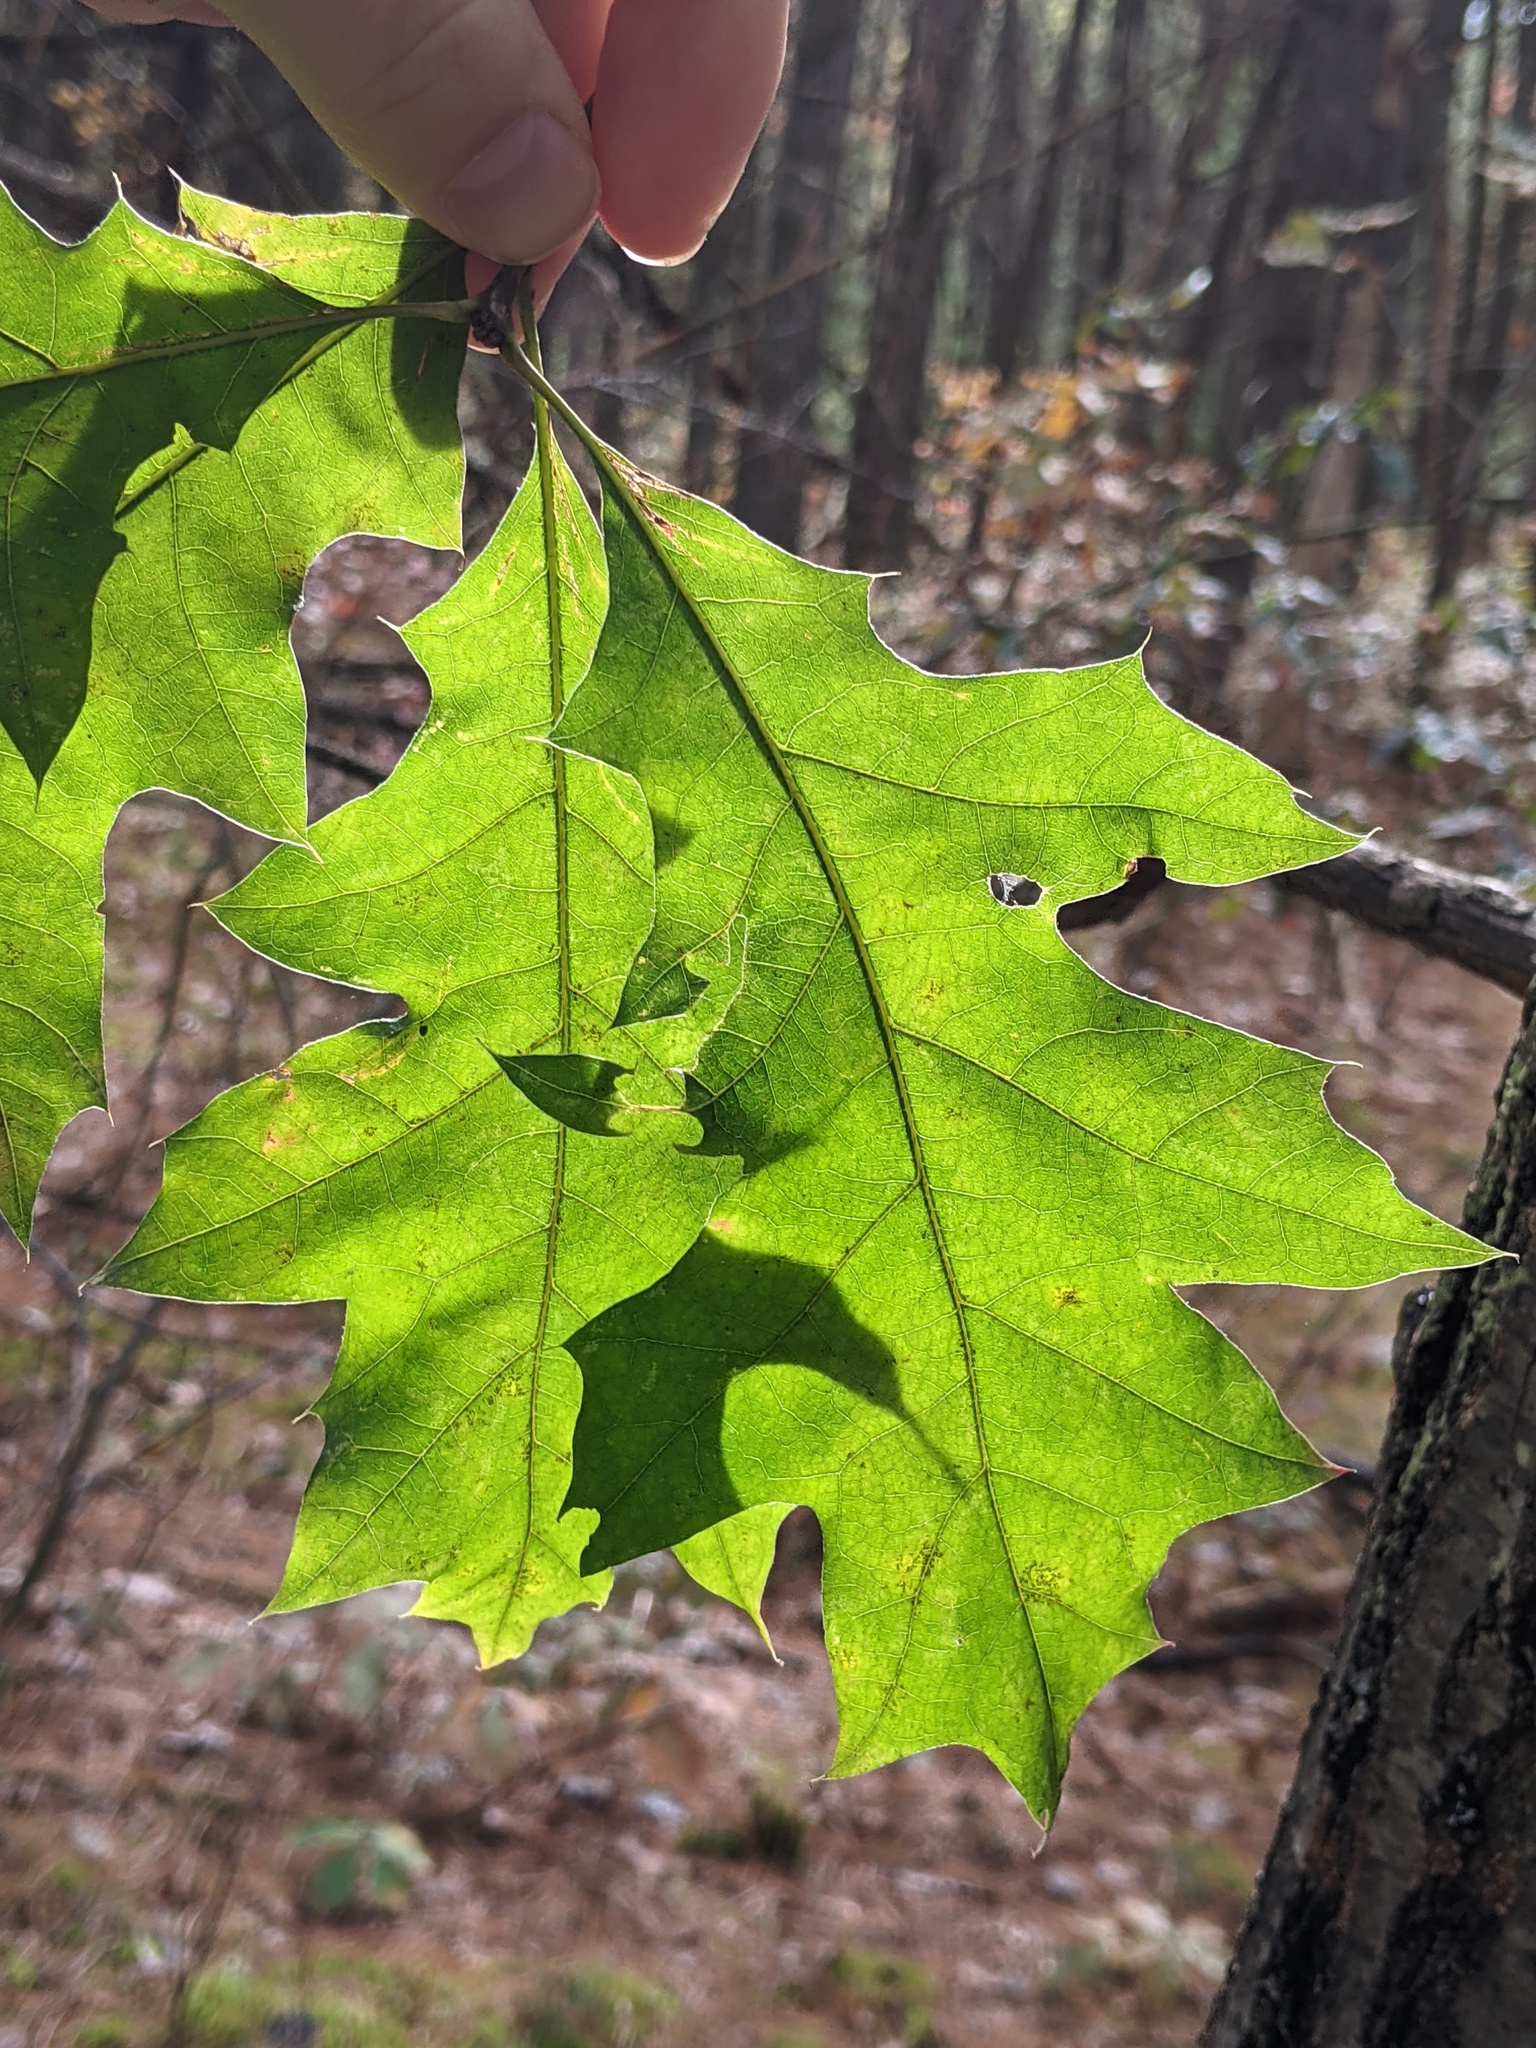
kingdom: Plantae
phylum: Tracheophyta
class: Magnoliopsida
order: Fagales
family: Fagaceae
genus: Quercus
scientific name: Quercus rubra
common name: Red oak
